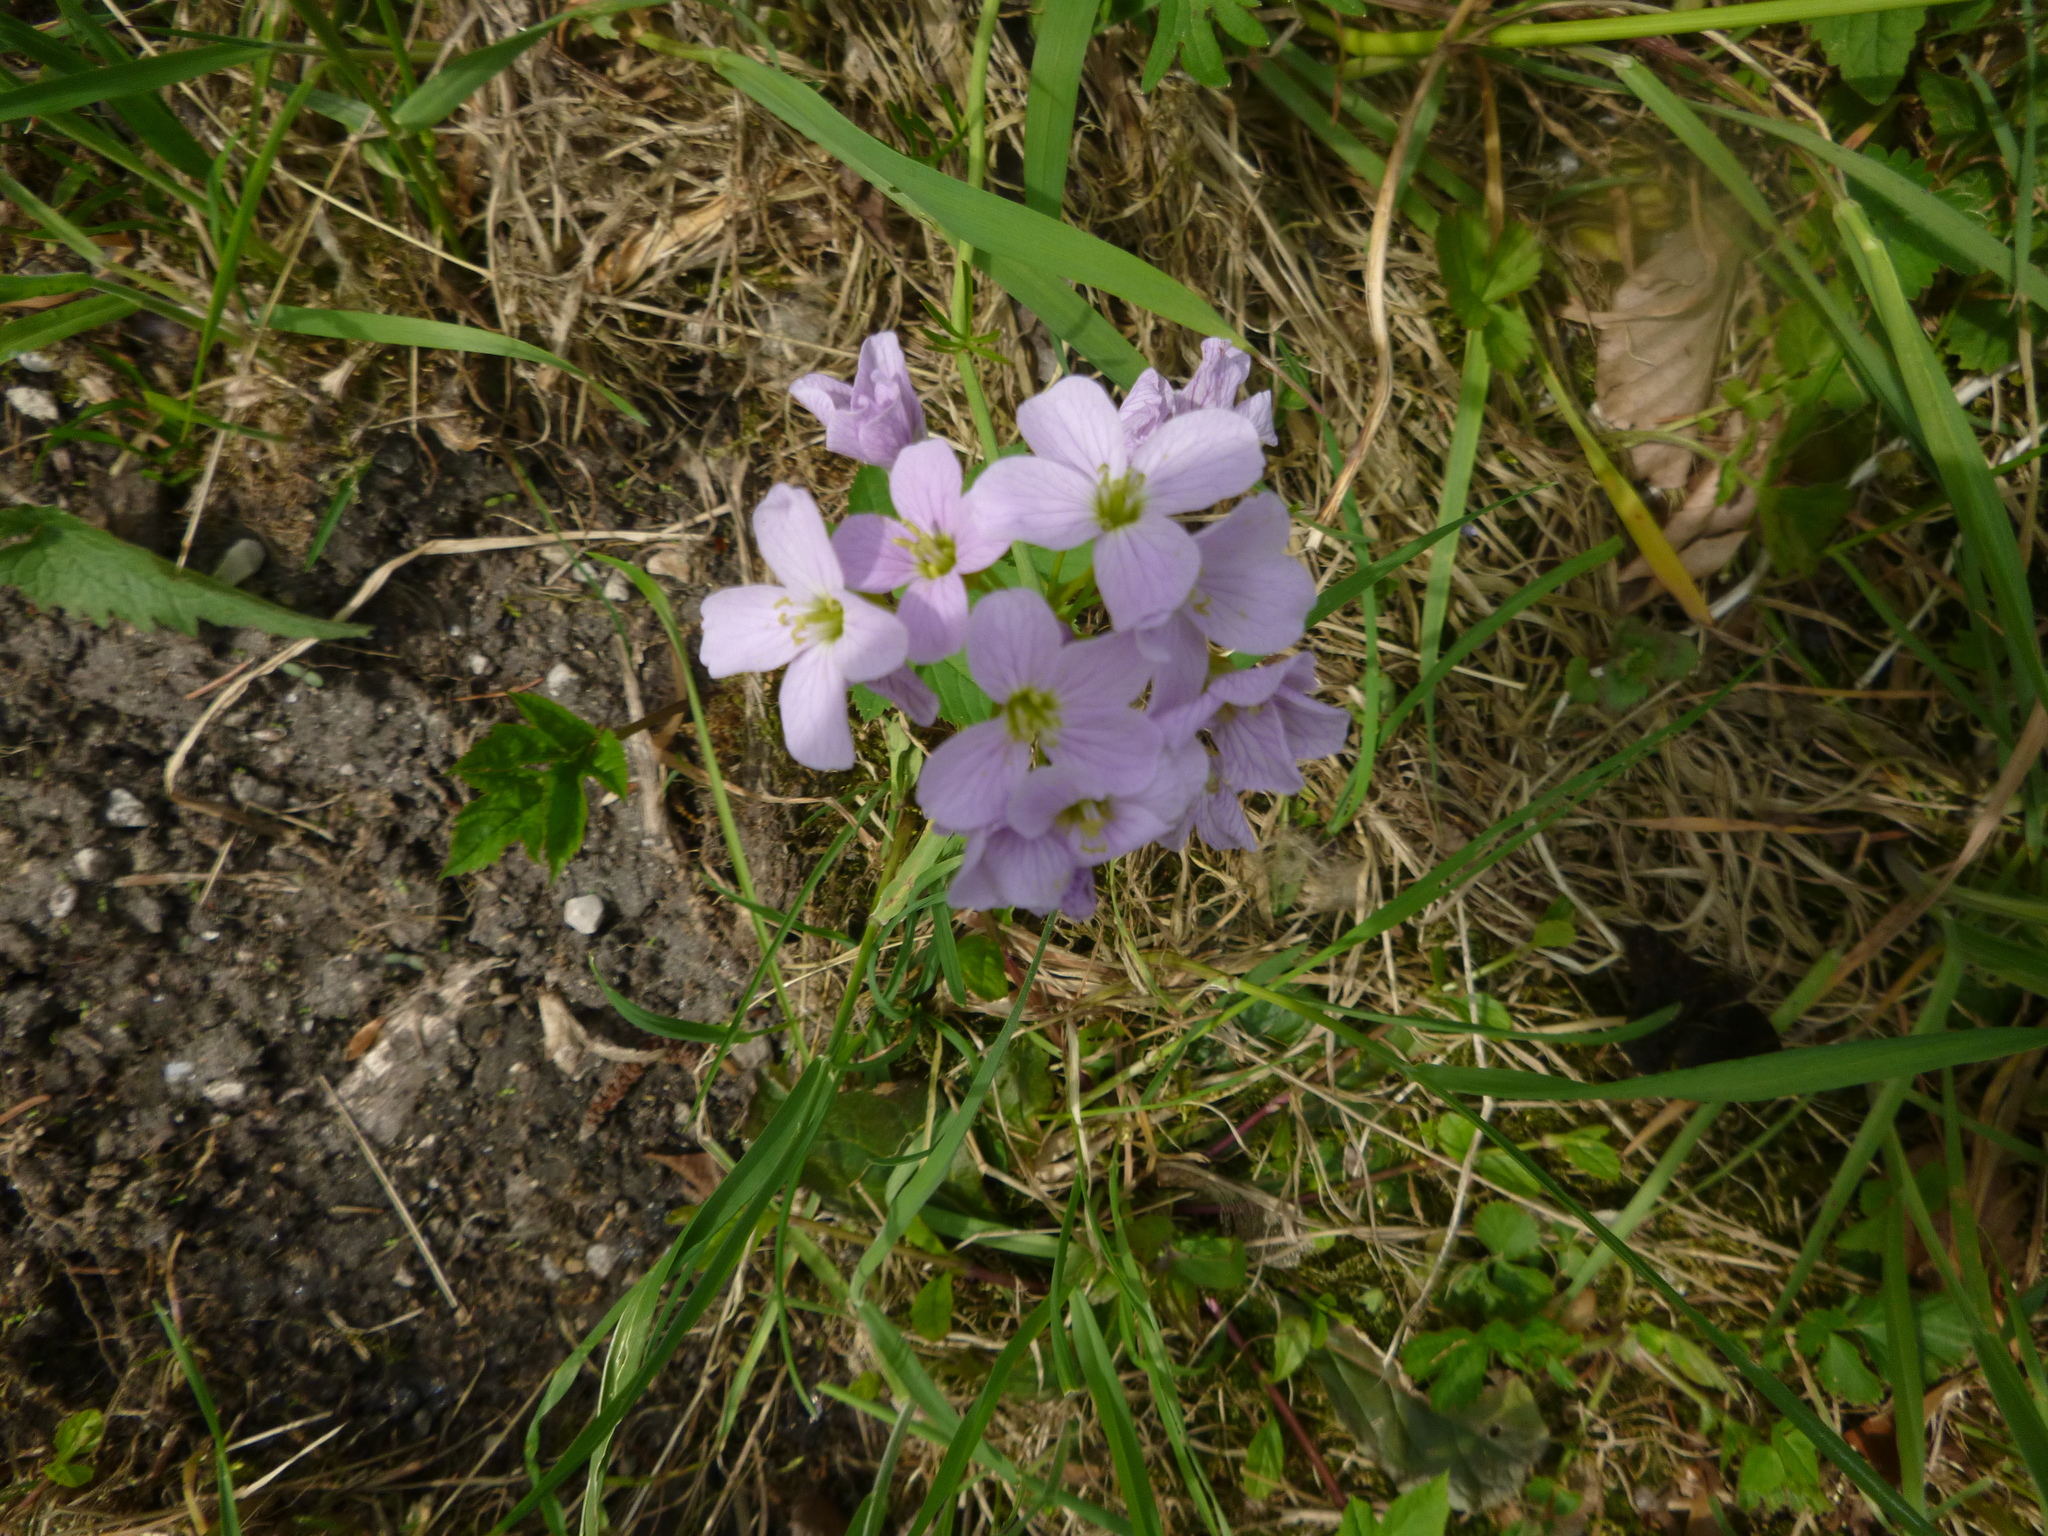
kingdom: Plantae
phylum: Tracheophyta
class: Magnoliopsida
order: Brassicales
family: Brassicaceae
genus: Cardamine
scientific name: Cardamine pratensis
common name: Cuckoo flower
